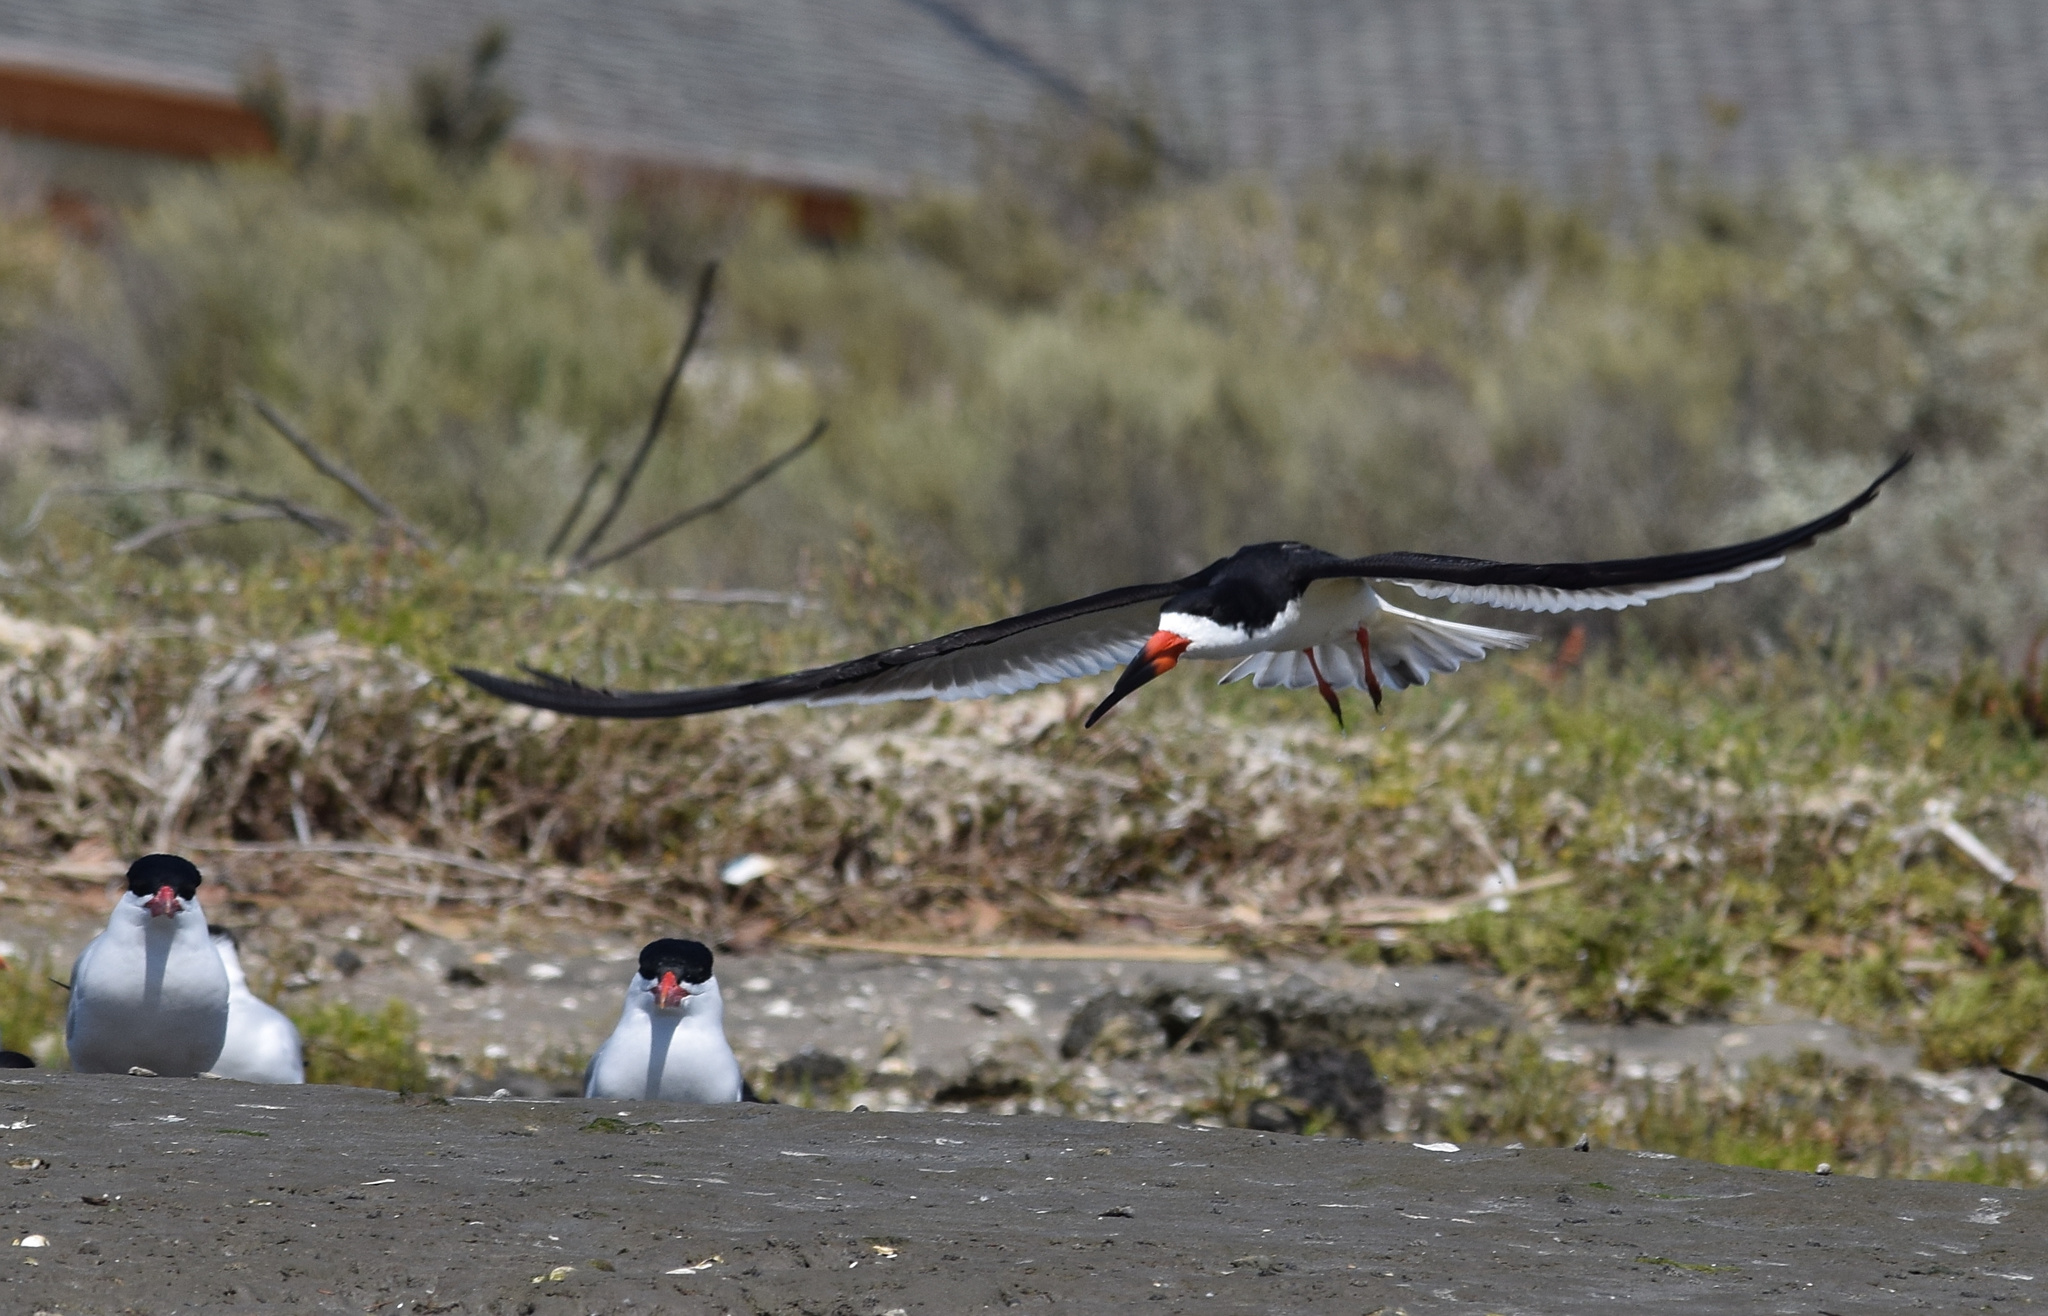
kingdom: Animalia
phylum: Chordata
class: Aves
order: Charadriiformes
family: Laridae
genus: Rynchops
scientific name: Rynchops niger
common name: Black skimmer
